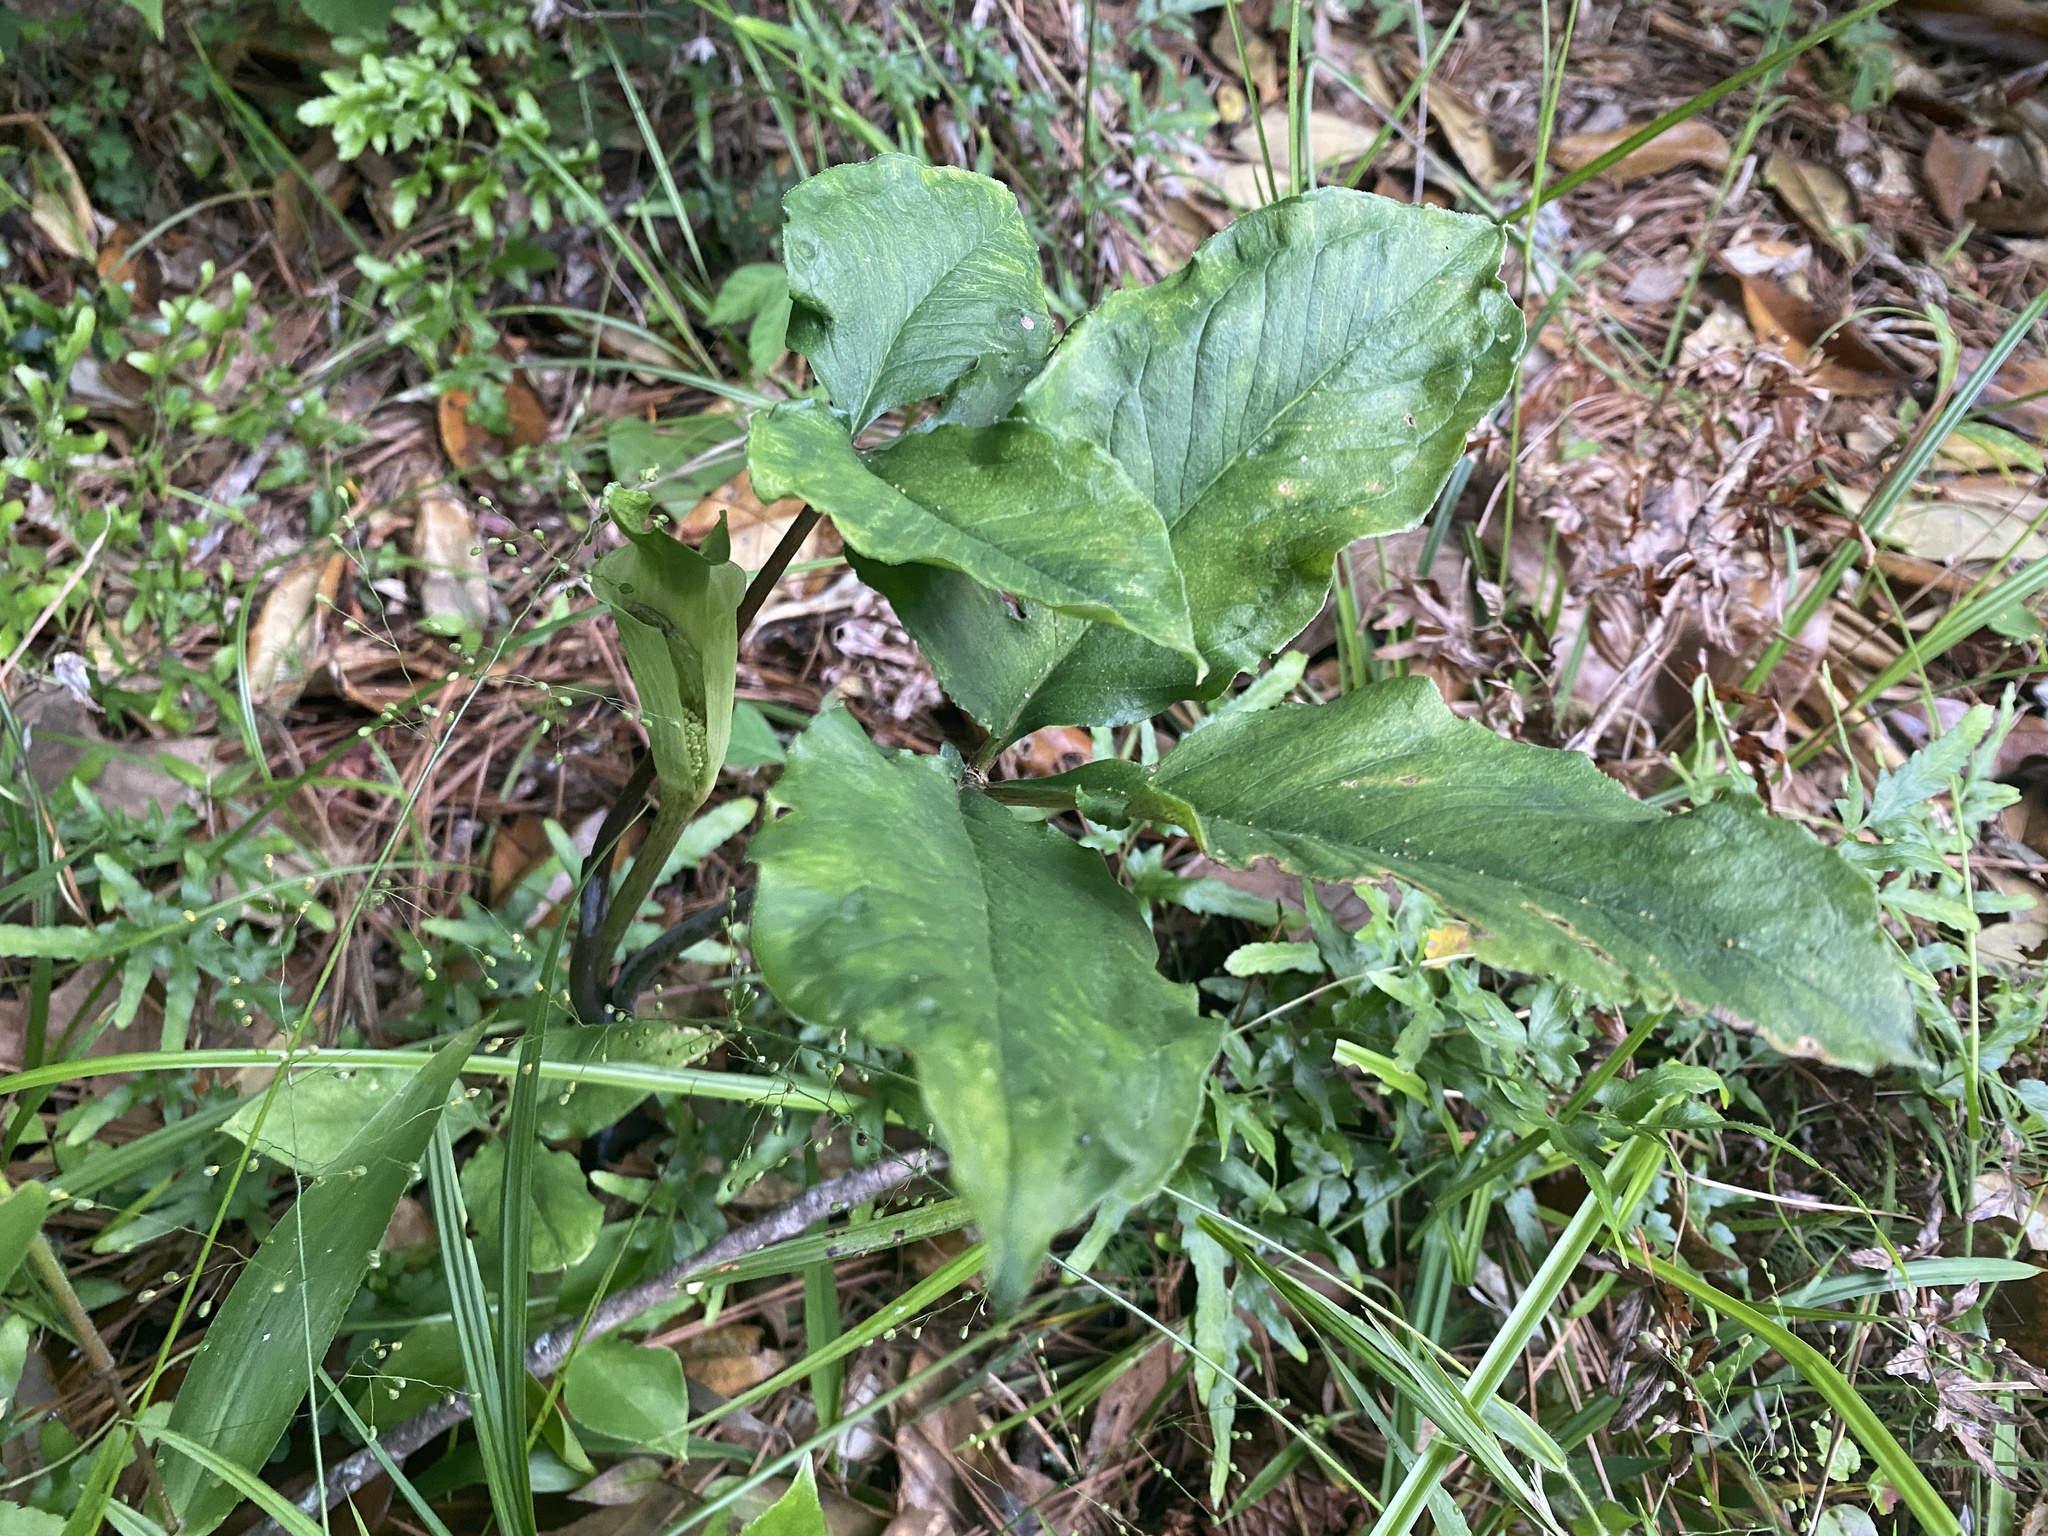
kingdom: Plantae
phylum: Tracheophyta
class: Liliopsida
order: Alismatales
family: Araceae
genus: Arisaema
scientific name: Arisaema quinatum
